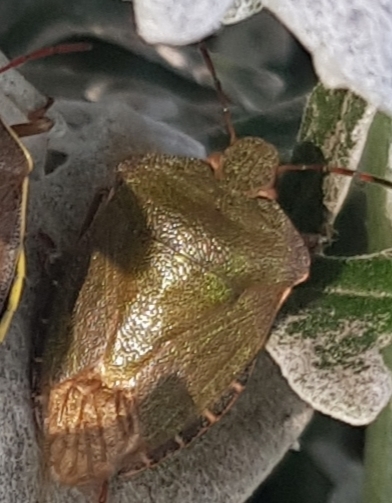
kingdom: Animalia
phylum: Arthropoda
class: Insecta
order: Hemiptera
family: Pentatomidae
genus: Palomena
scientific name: Palomena prasina
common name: Green shieldbug
